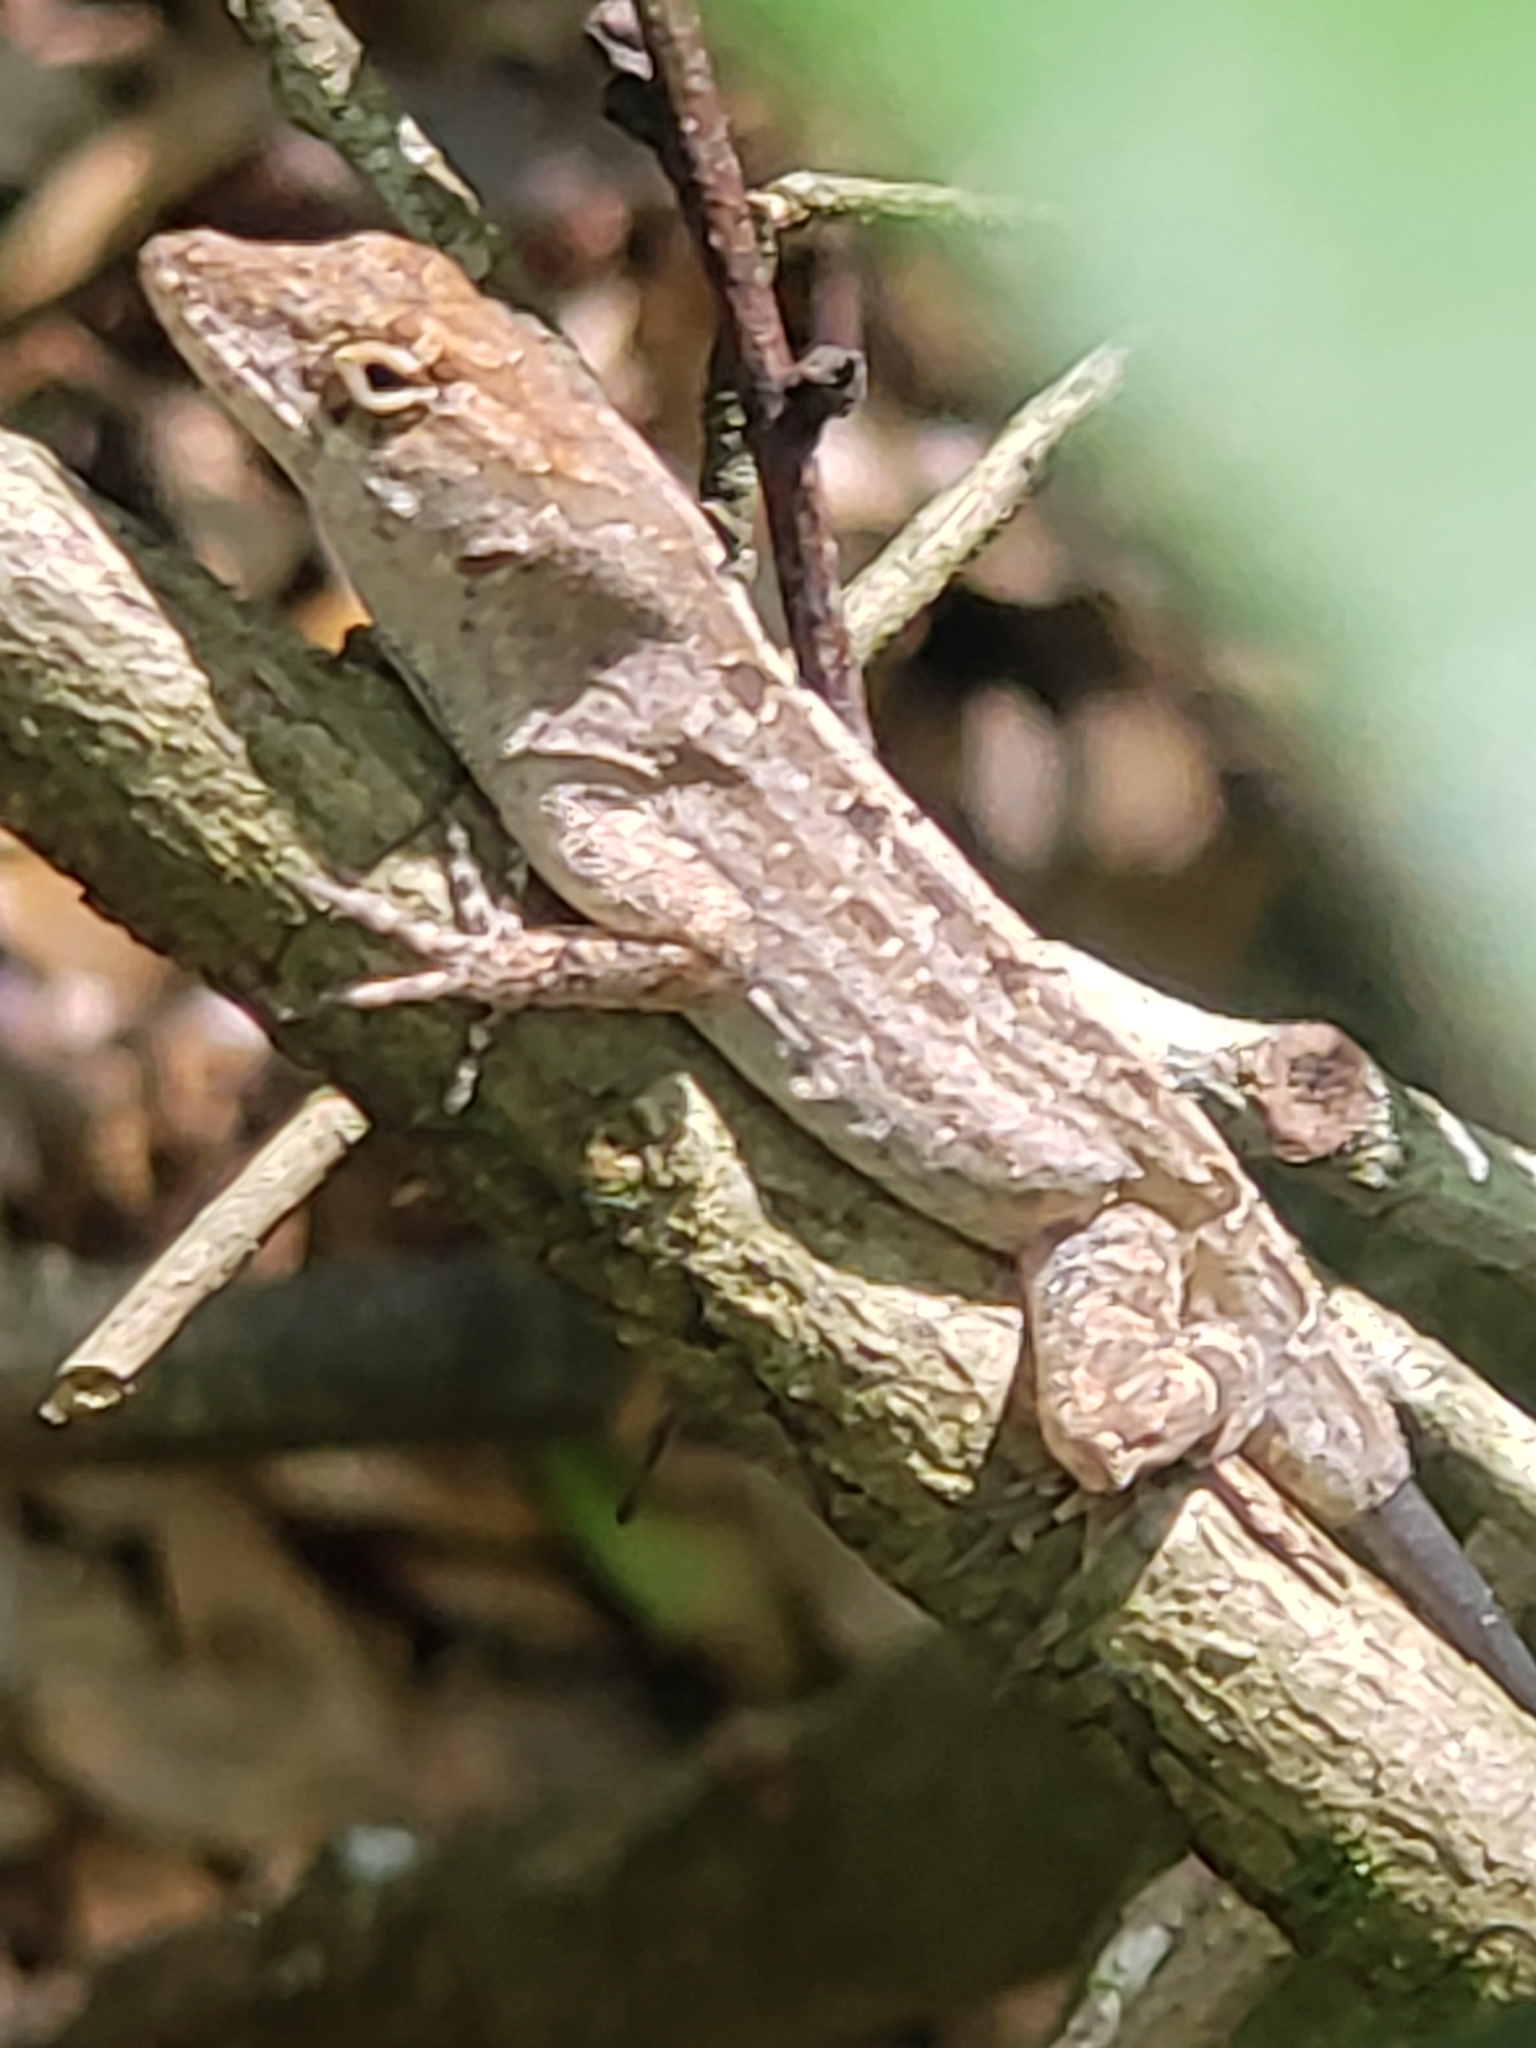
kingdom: Animalia
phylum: Chordata
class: Squamata
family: Dactyloidae
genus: Anolis
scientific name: Anolis sagrei
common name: Brown anole
